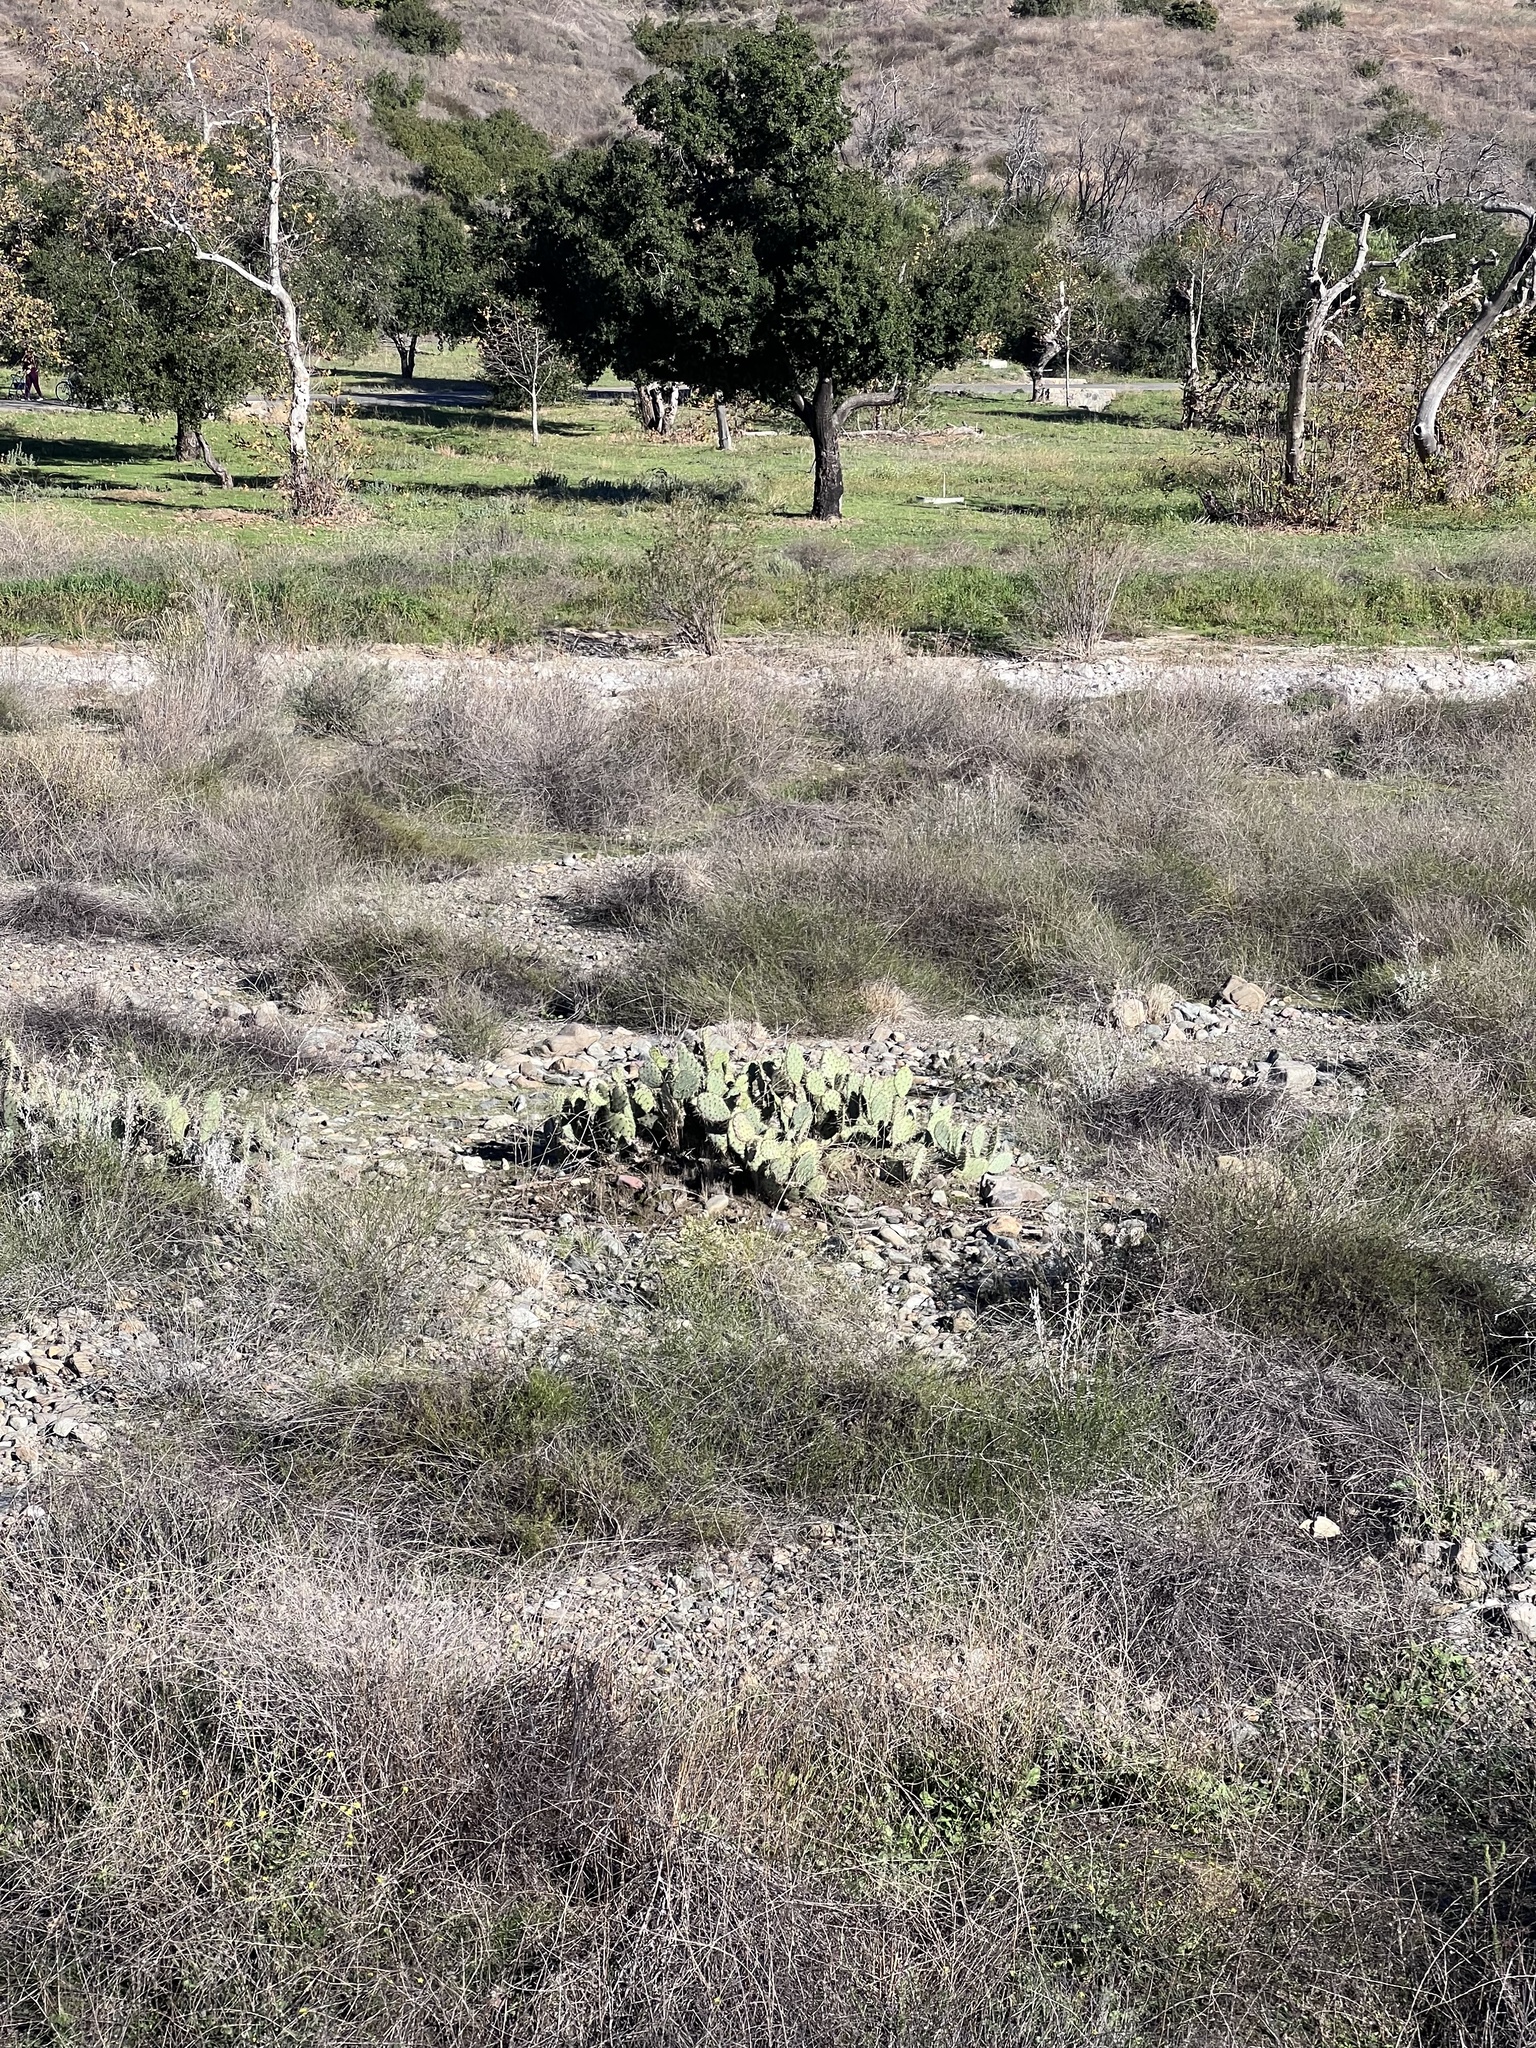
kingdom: Plantae
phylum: Tracheophyta
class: Magnoliopsida
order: Caryophyllales
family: Cactaceae
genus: Opuntia
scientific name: Opuntia littoralis
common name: Coastal prickly-pear
